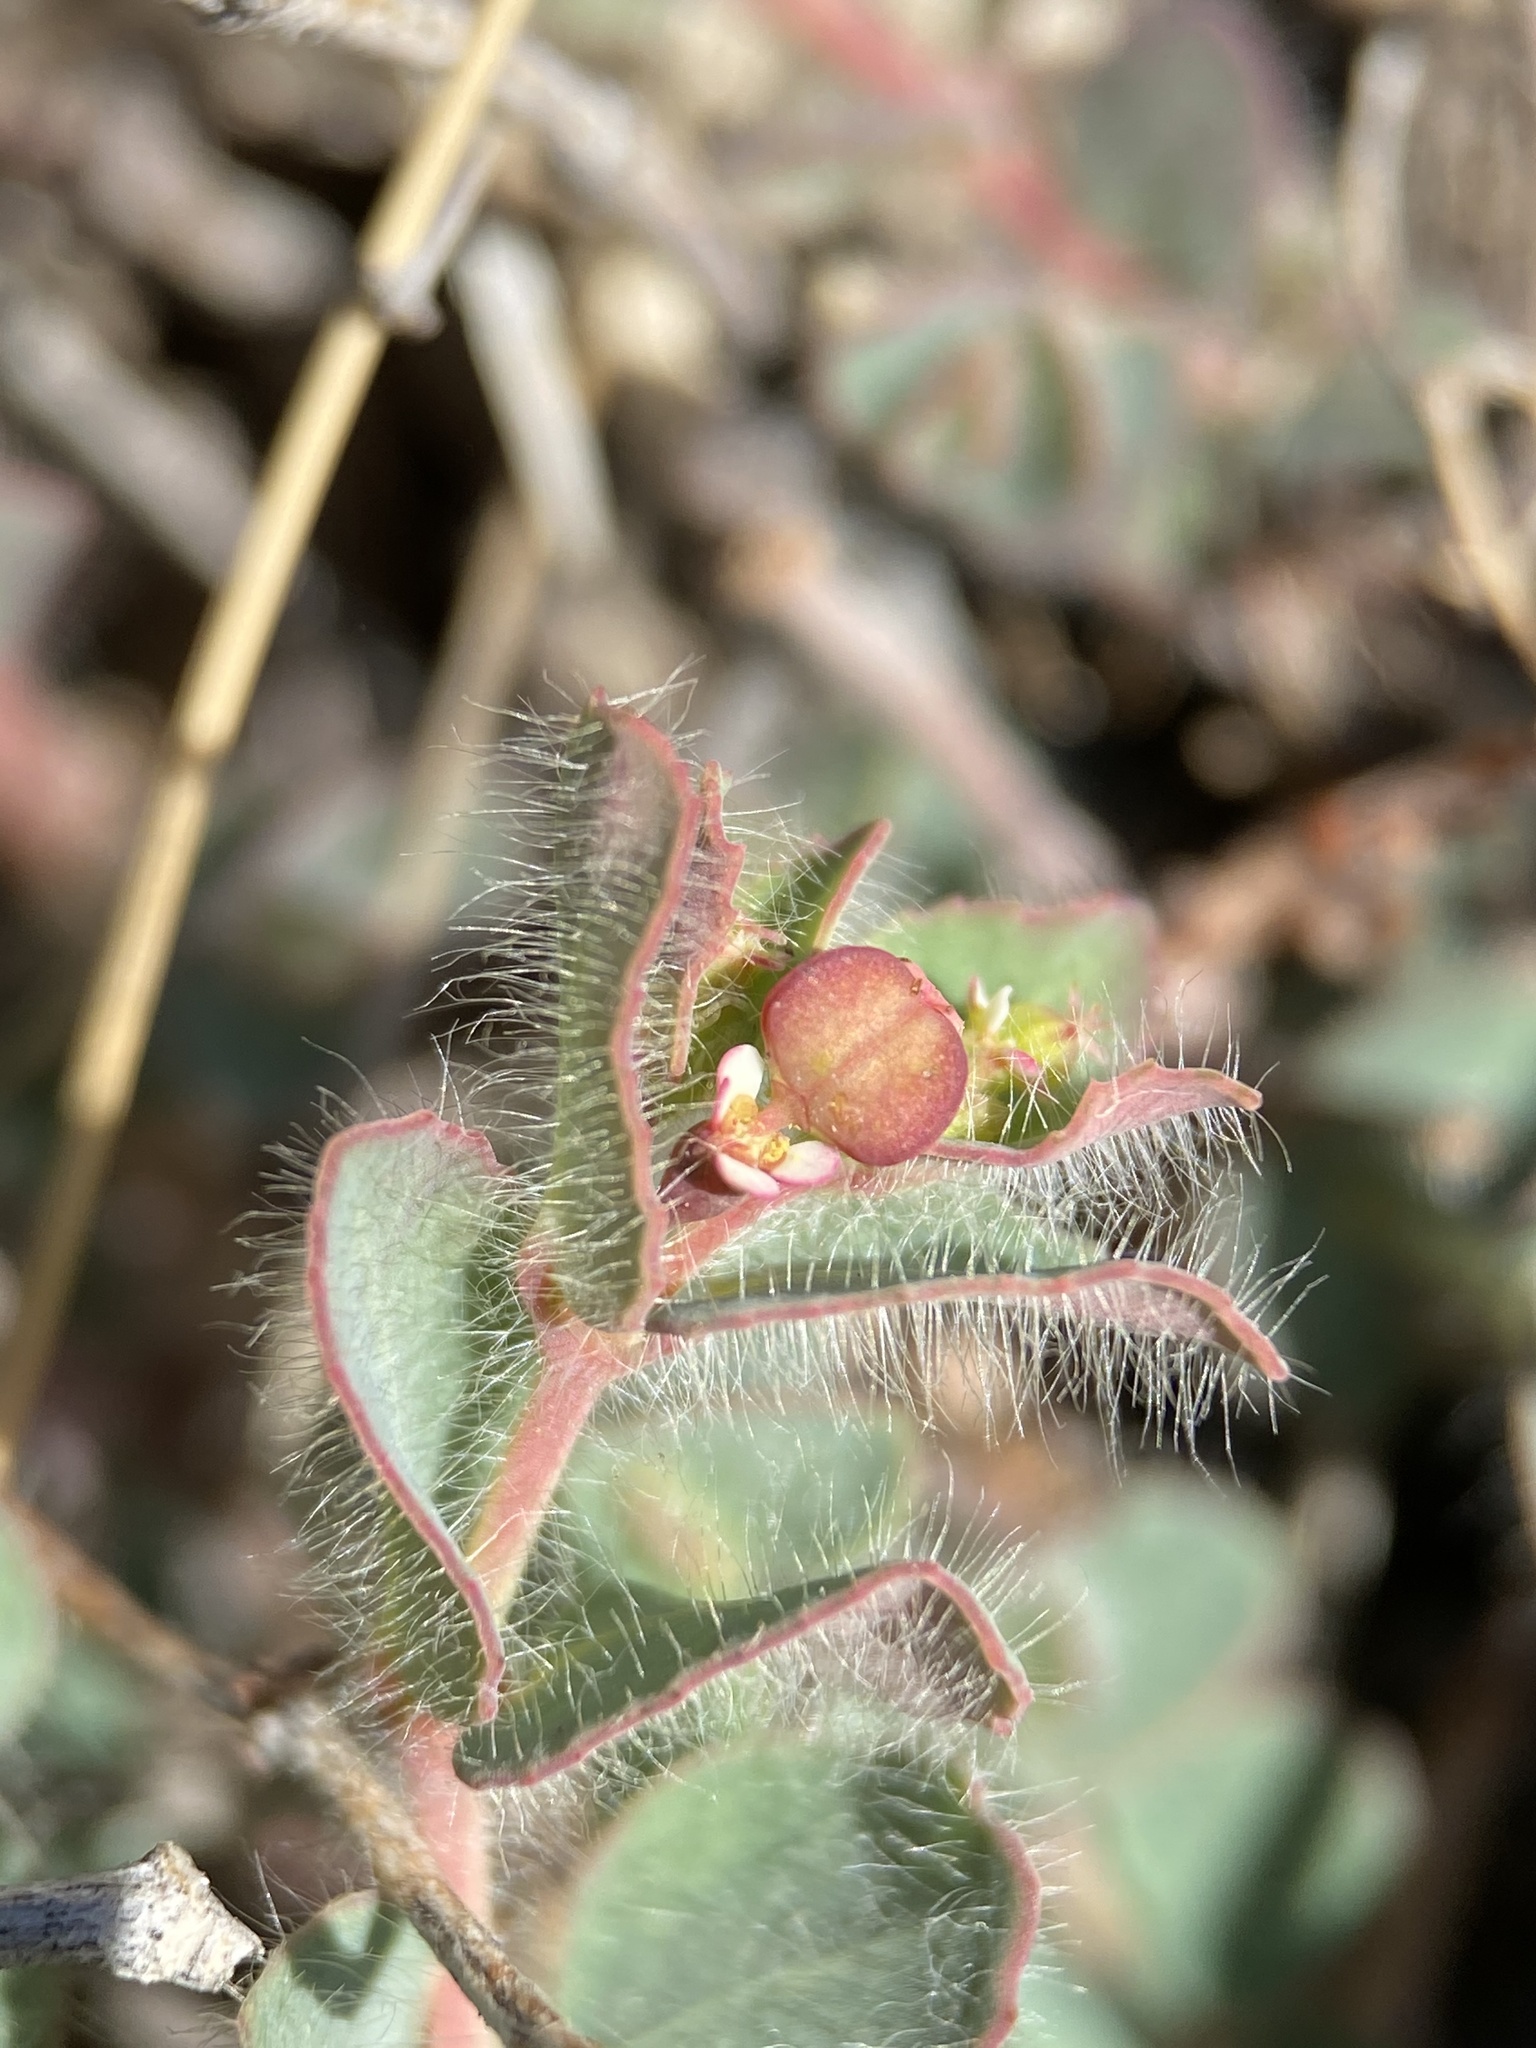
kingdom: Plantae
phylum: Tracheophyta
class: Magnoliopsida
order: Malpighiales
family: Euphorbiaceae
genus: Euphorbia
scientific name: Euphorbia villifera
